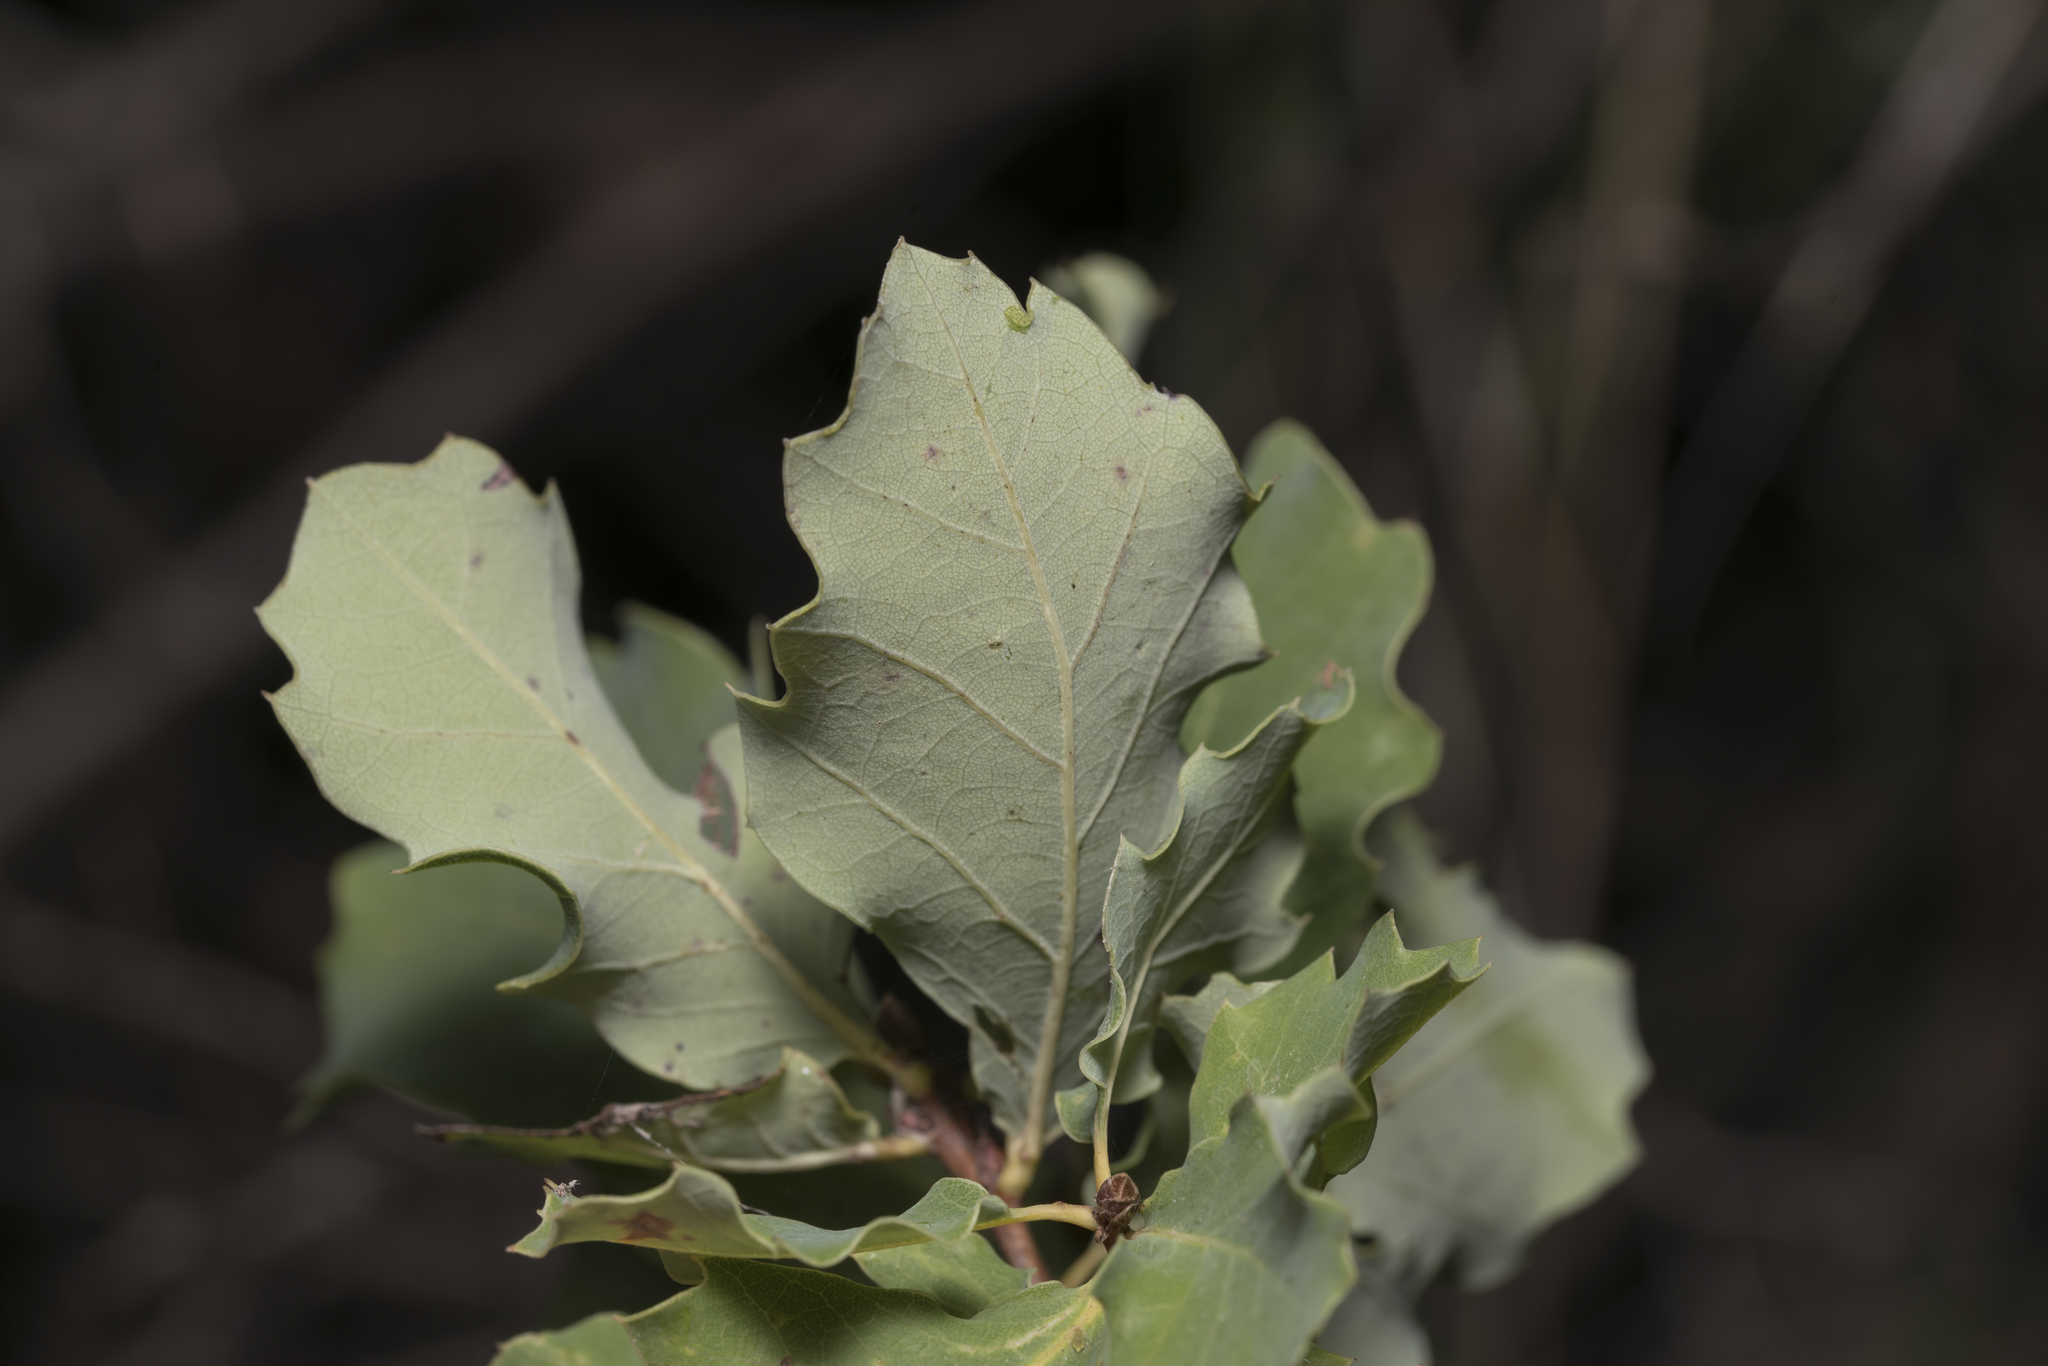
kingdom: Plantae
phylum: Tracheophyta
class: Magnoliopsida
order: Fagales
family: Fagaceae
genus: Quercus
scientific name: Quercus infectoria
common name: Aleppo oak
